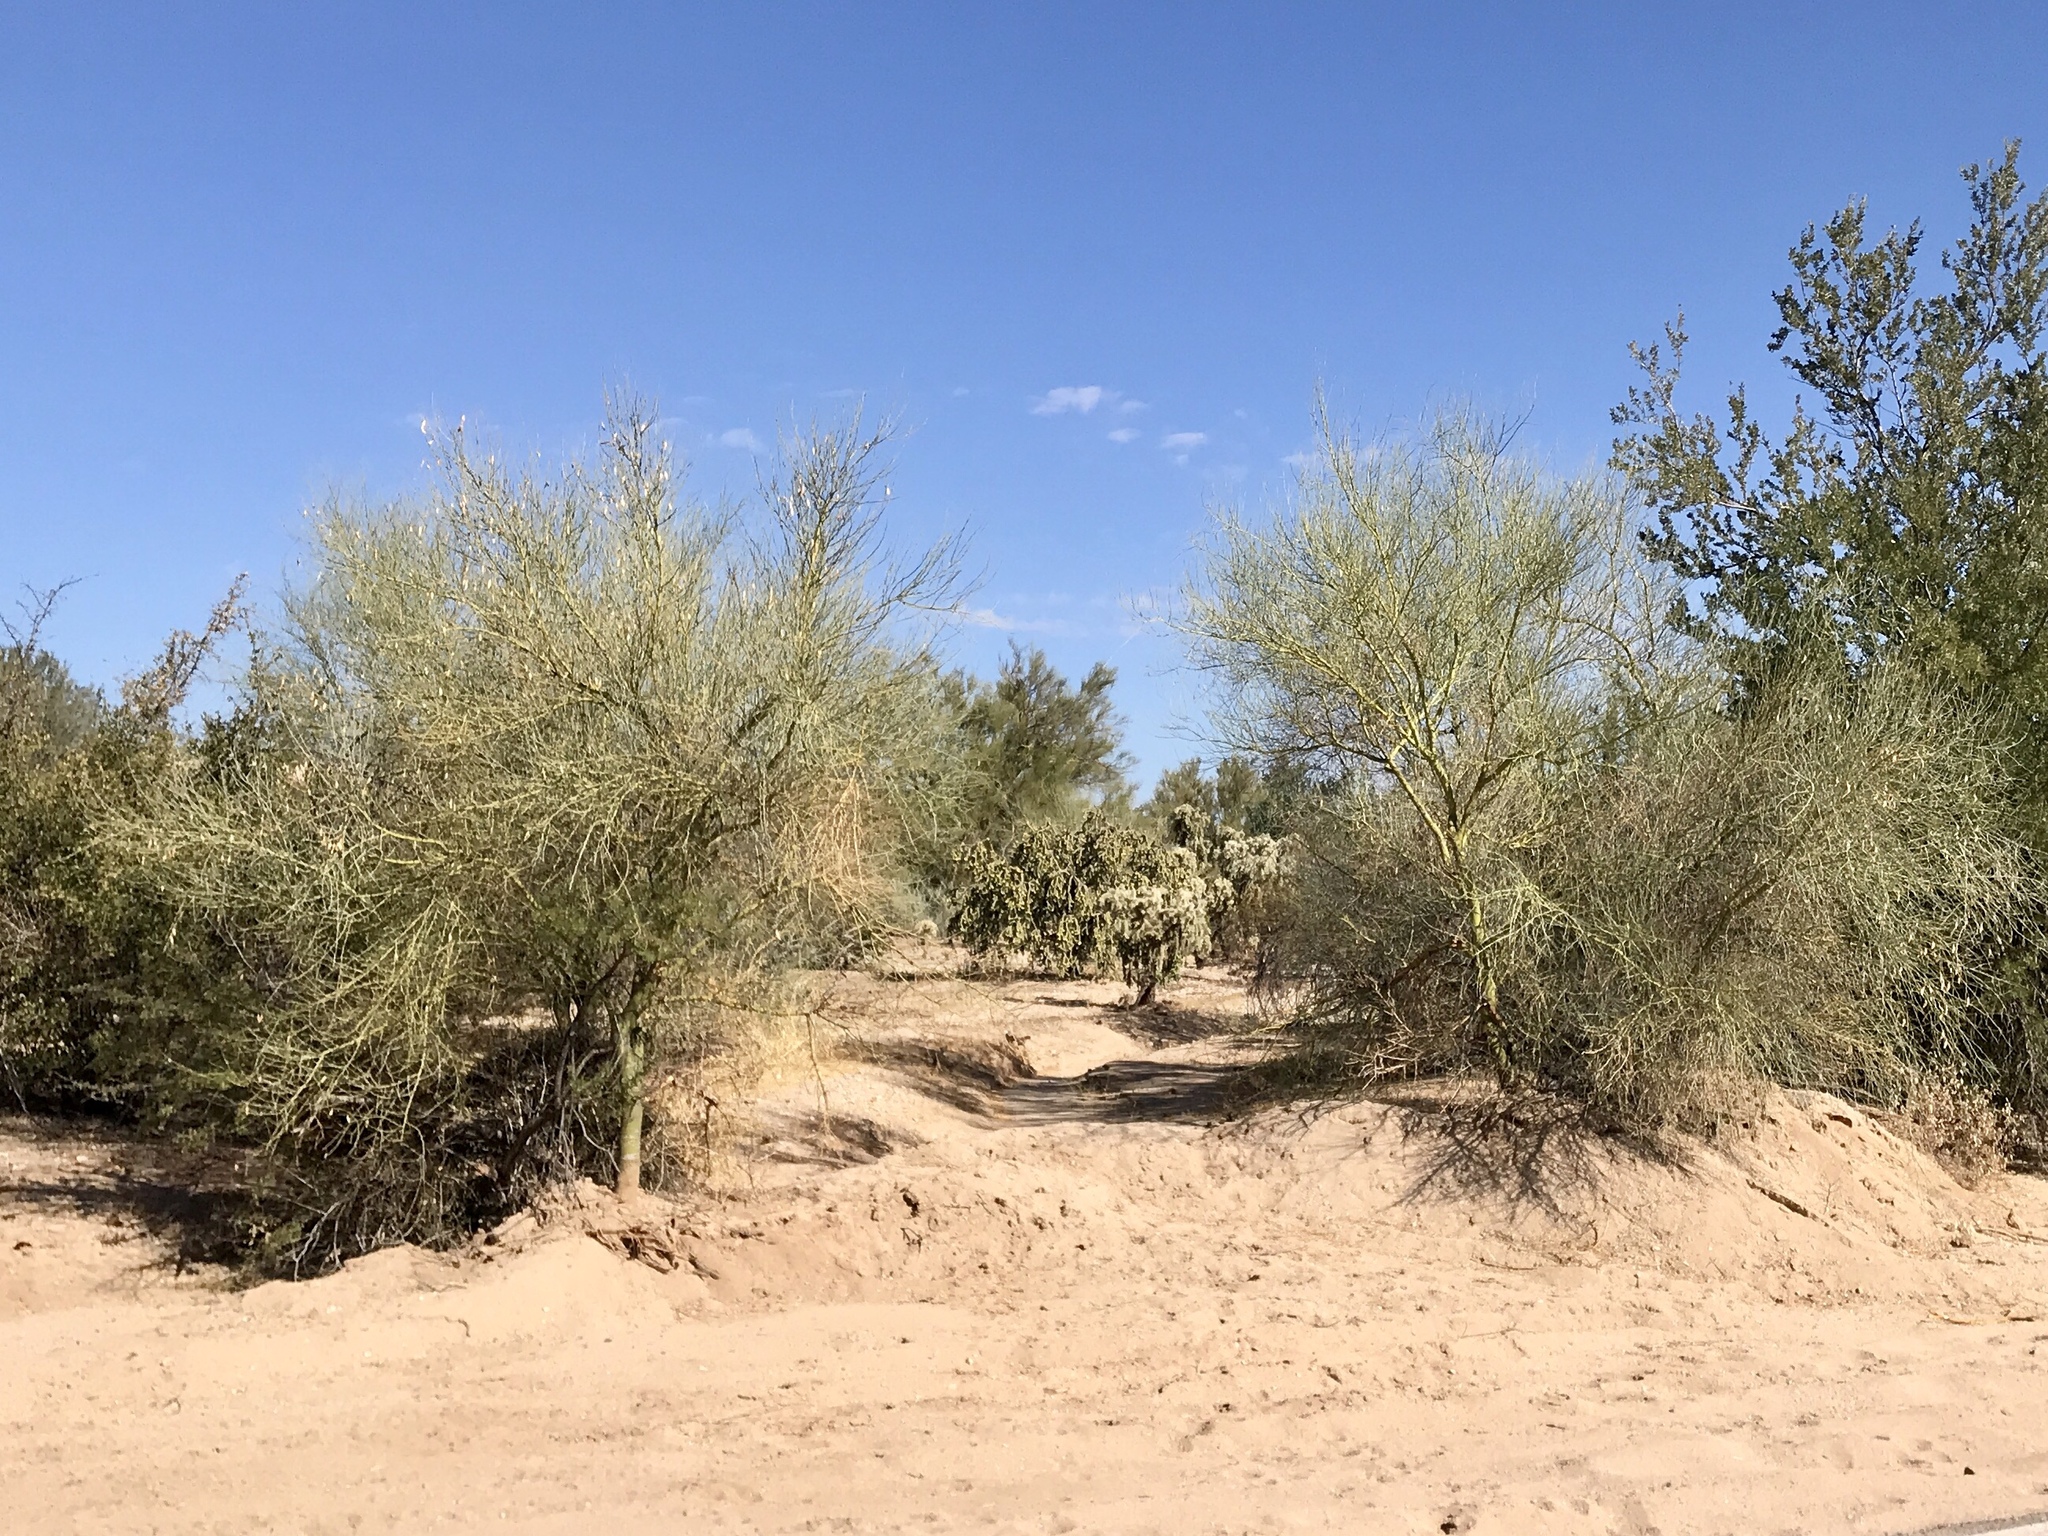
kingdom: Plantae
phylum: Tracheophyta
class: Magnoliopsida
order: Fabales
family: Fabaceae
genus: Parkinsonia
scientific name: Parkinsonia florida
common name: Blue paloverde
